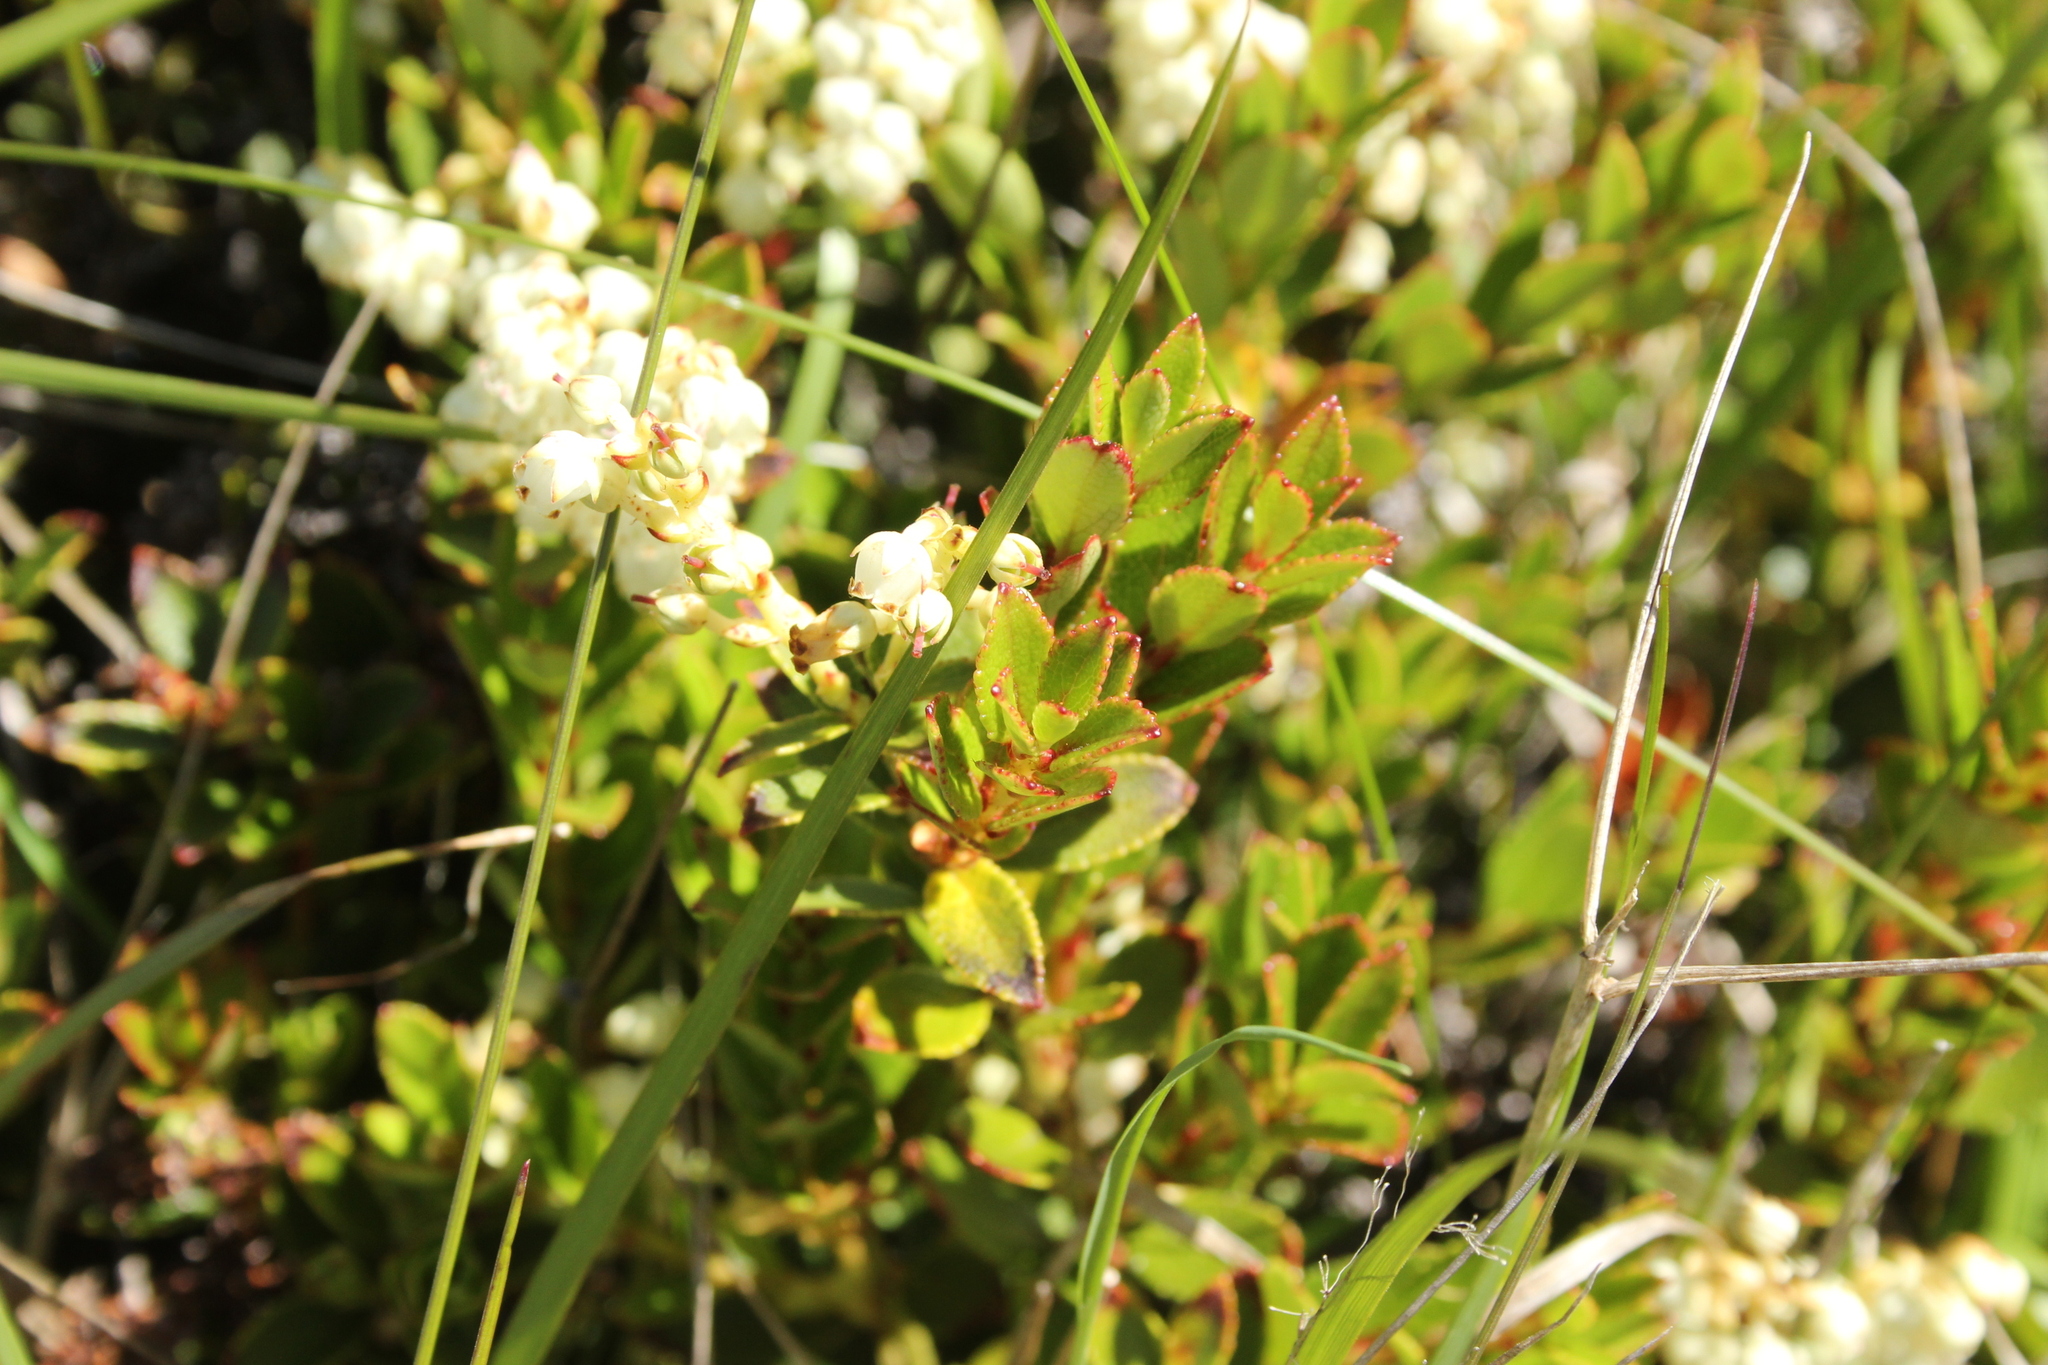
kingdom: Plantae
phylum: Tracheophyta
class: Magnoliopsida
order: Ericales
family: Ericaceae
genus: Gaultheria
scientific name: Gaultheria crassa
